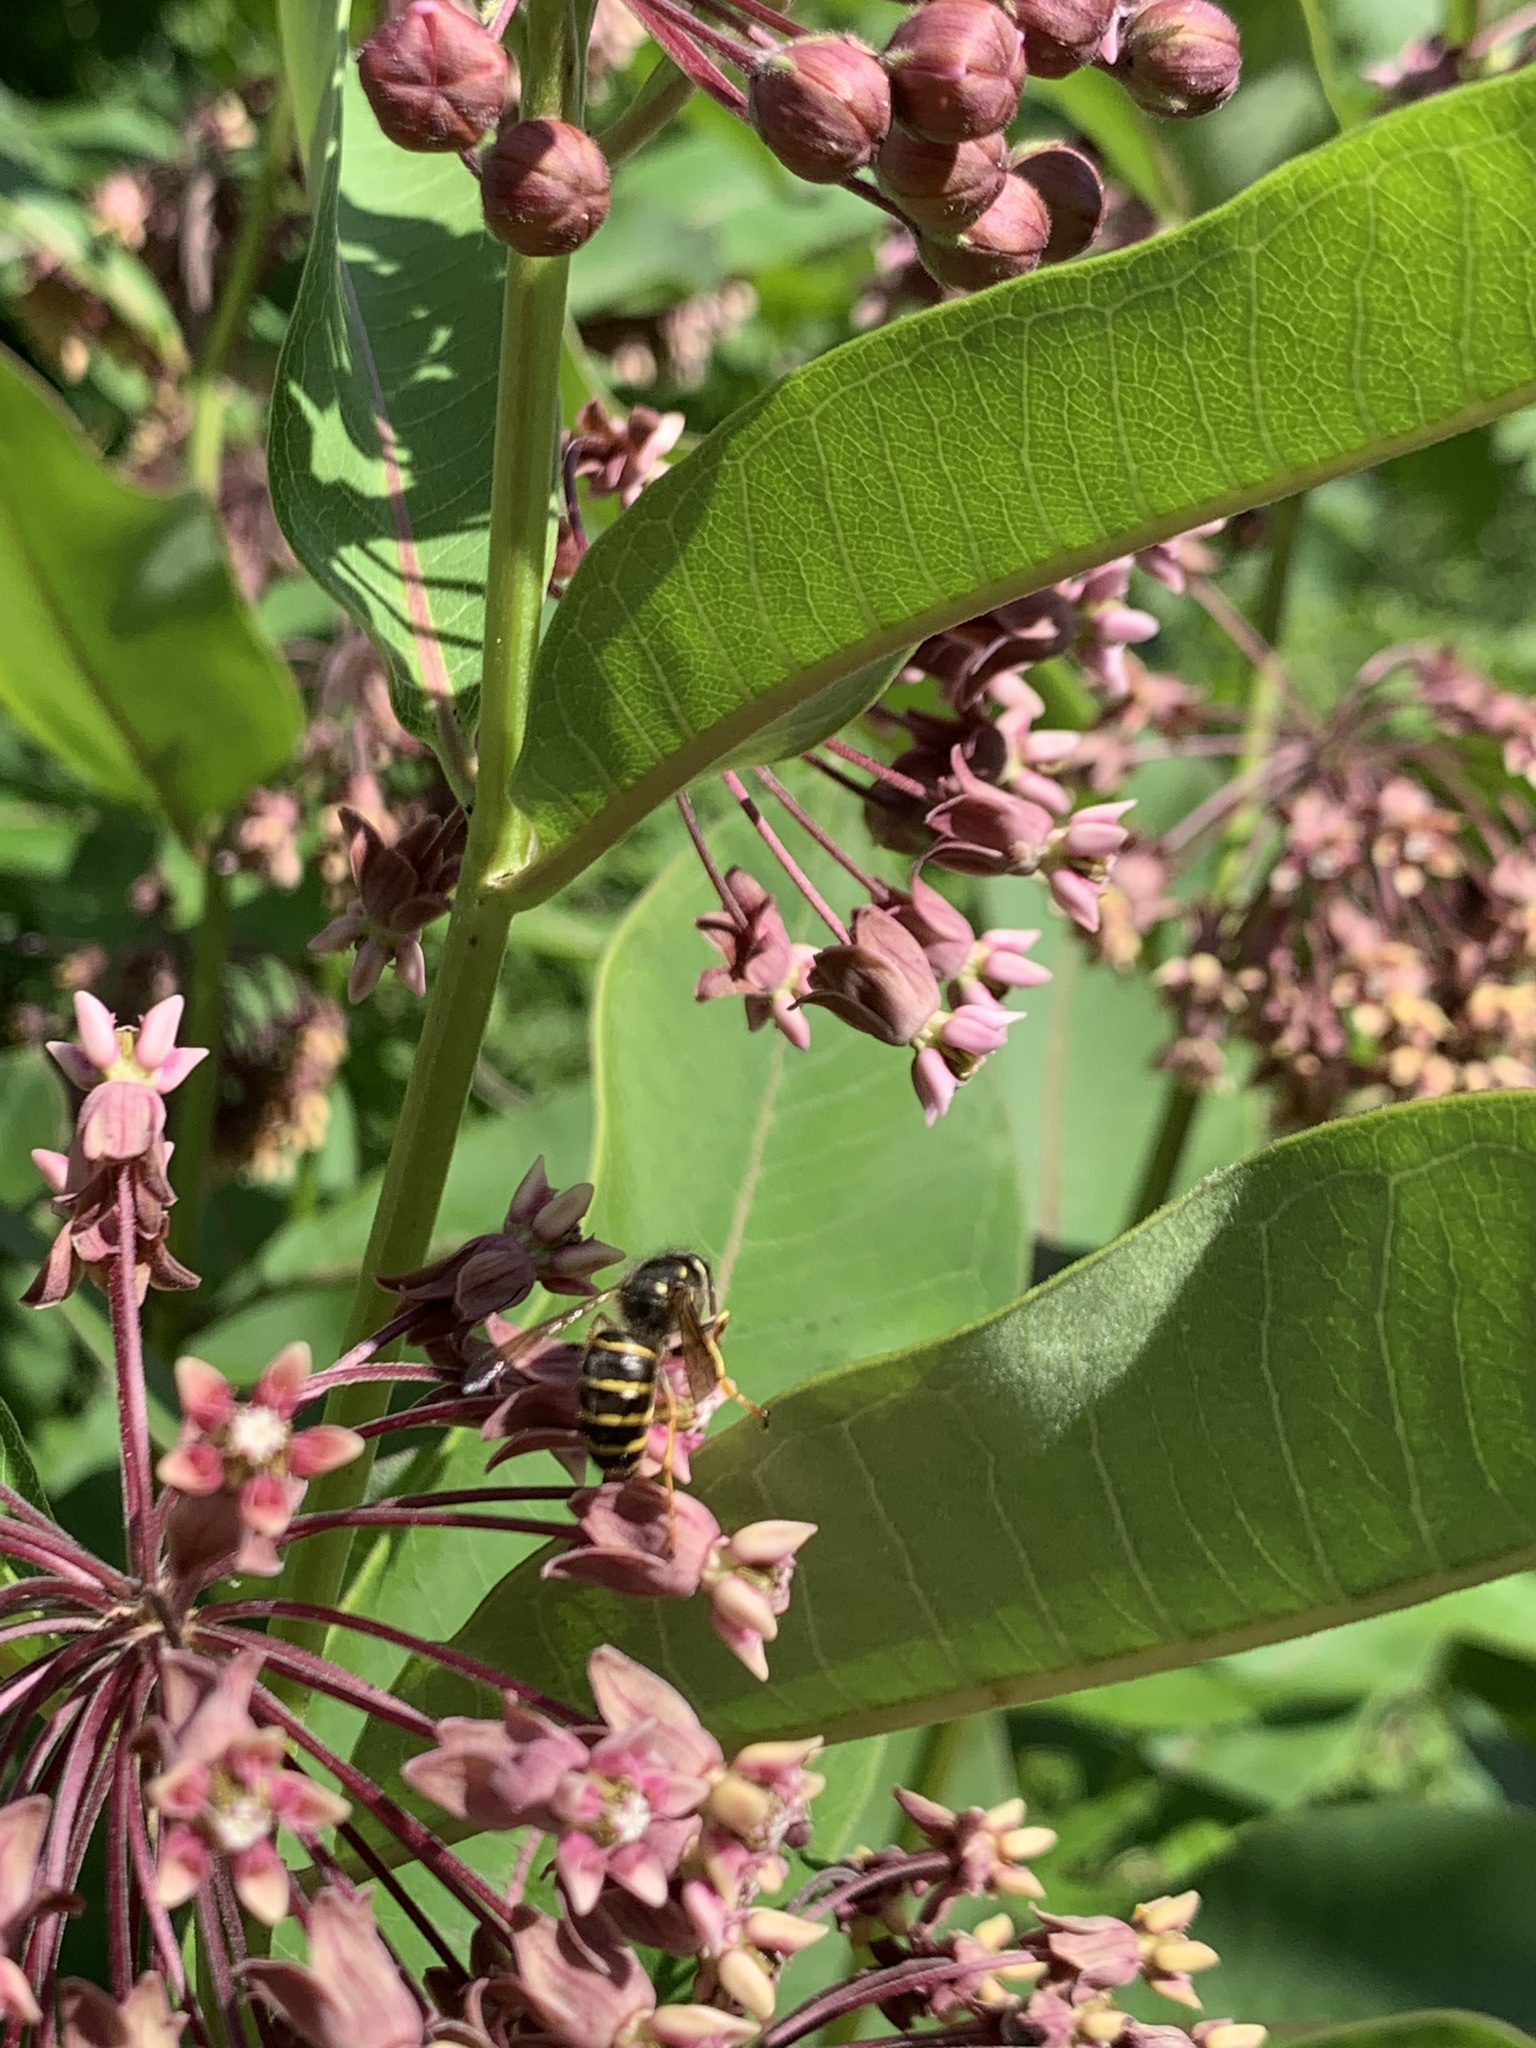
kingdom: Animalia
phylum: Arthropoda
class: Insecta
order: Hymenoptera
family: Vespidae
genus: Dolichovespula
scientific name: Dolichovespula norvegicoides
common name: Northern aerial yellowjacket
